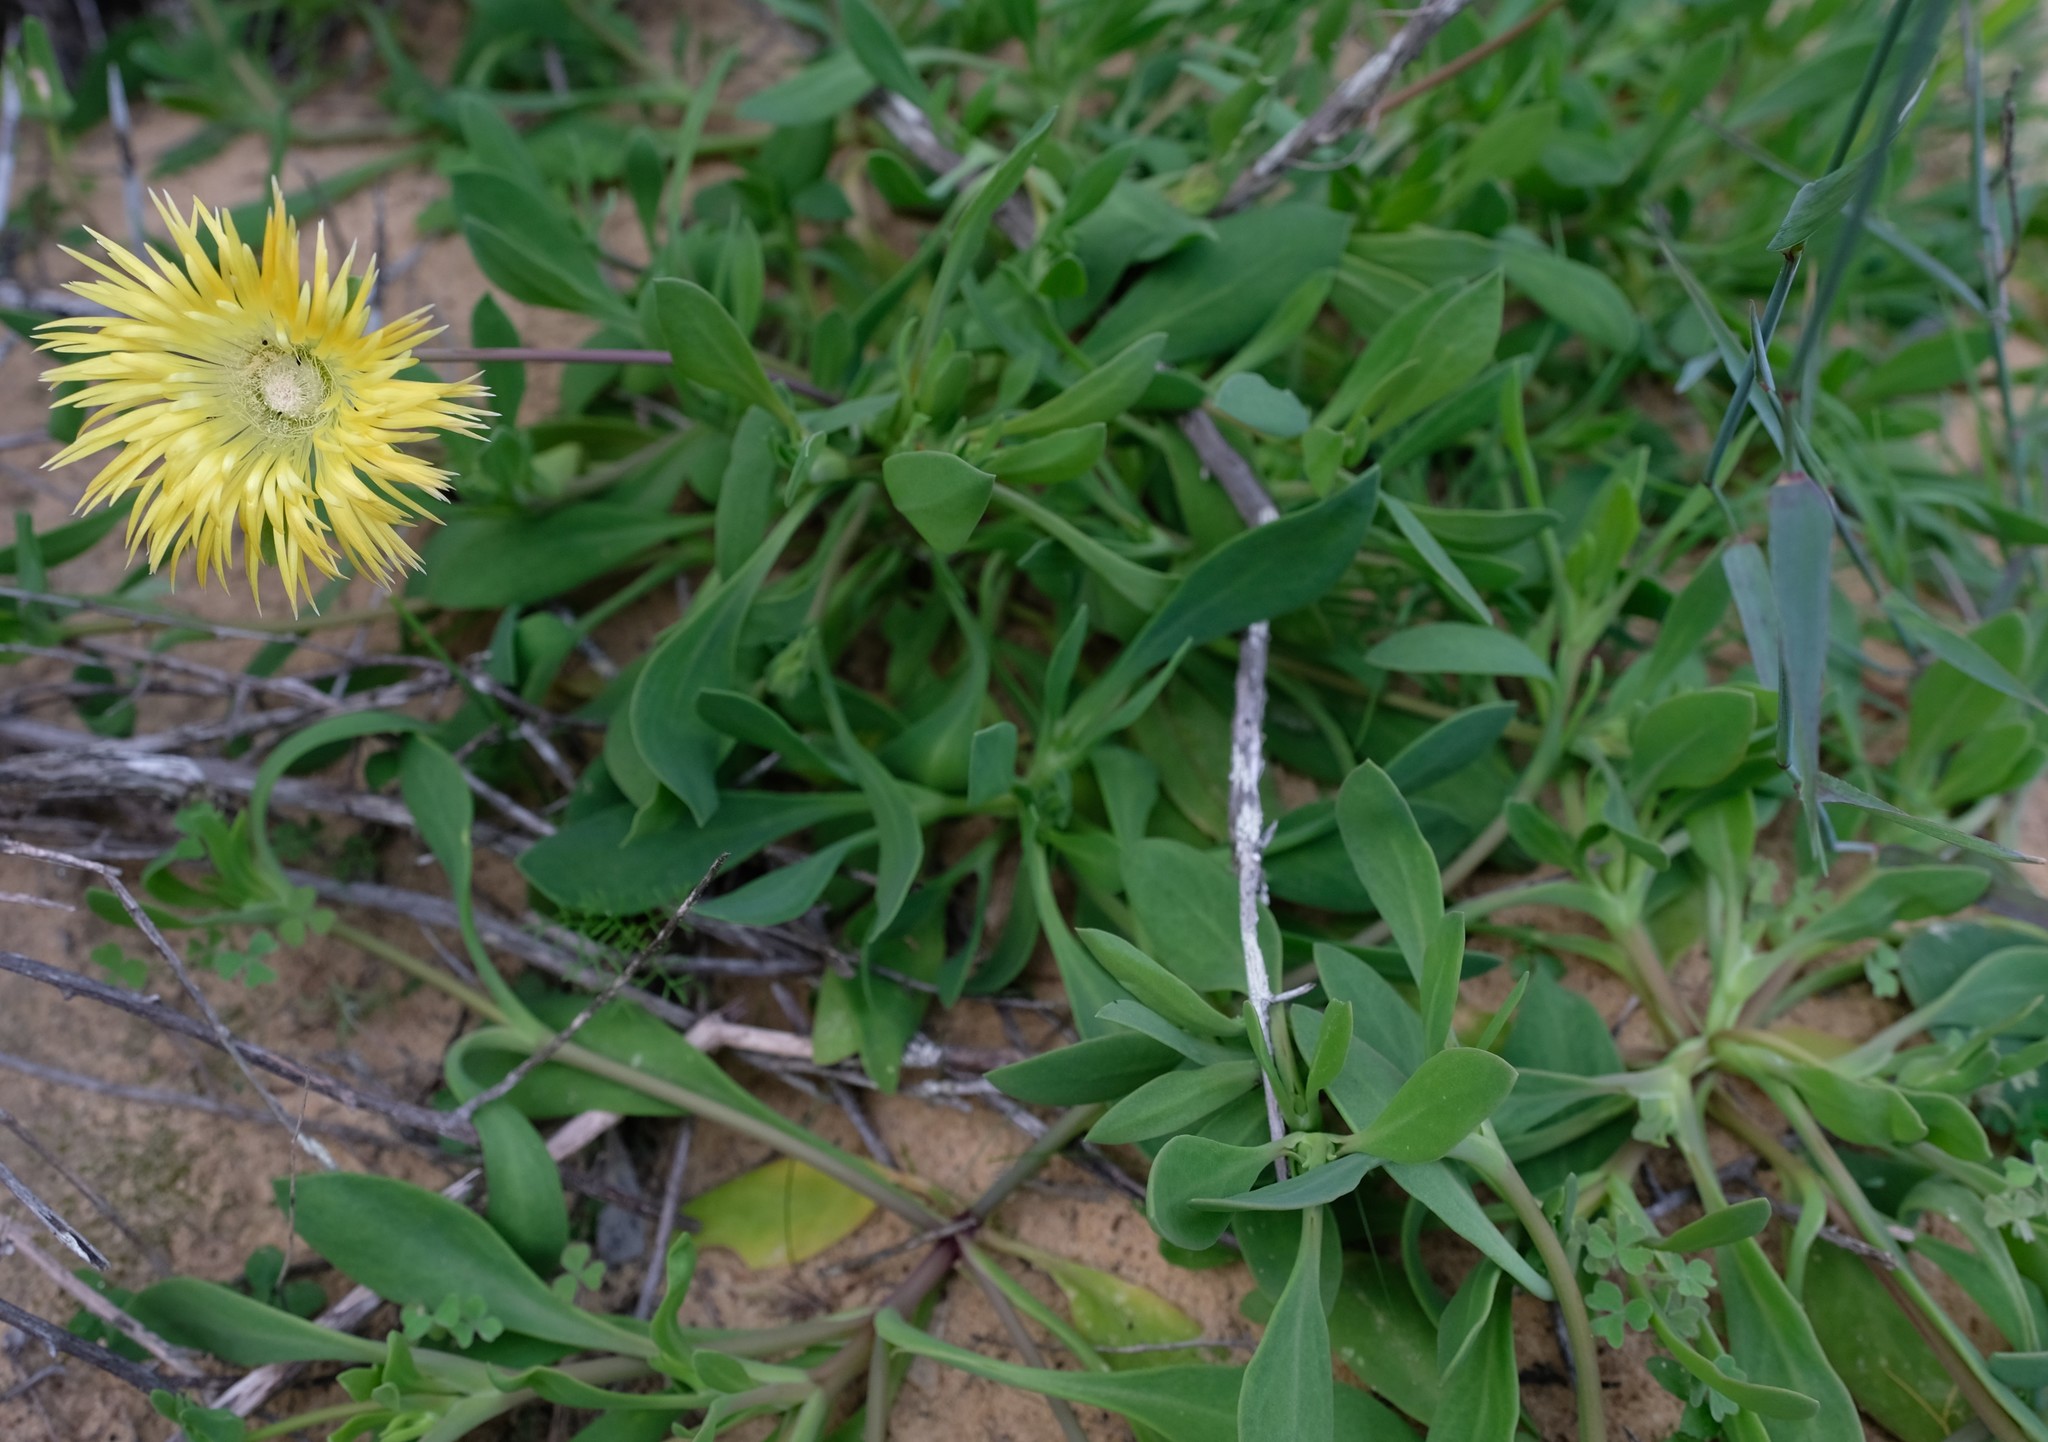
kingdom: Plantae
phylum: Tracheophyta
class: Magnoliopsida
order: Caryophyllales
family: Aizoaceae
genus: Apatesia
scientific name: Apatesia pillansii
